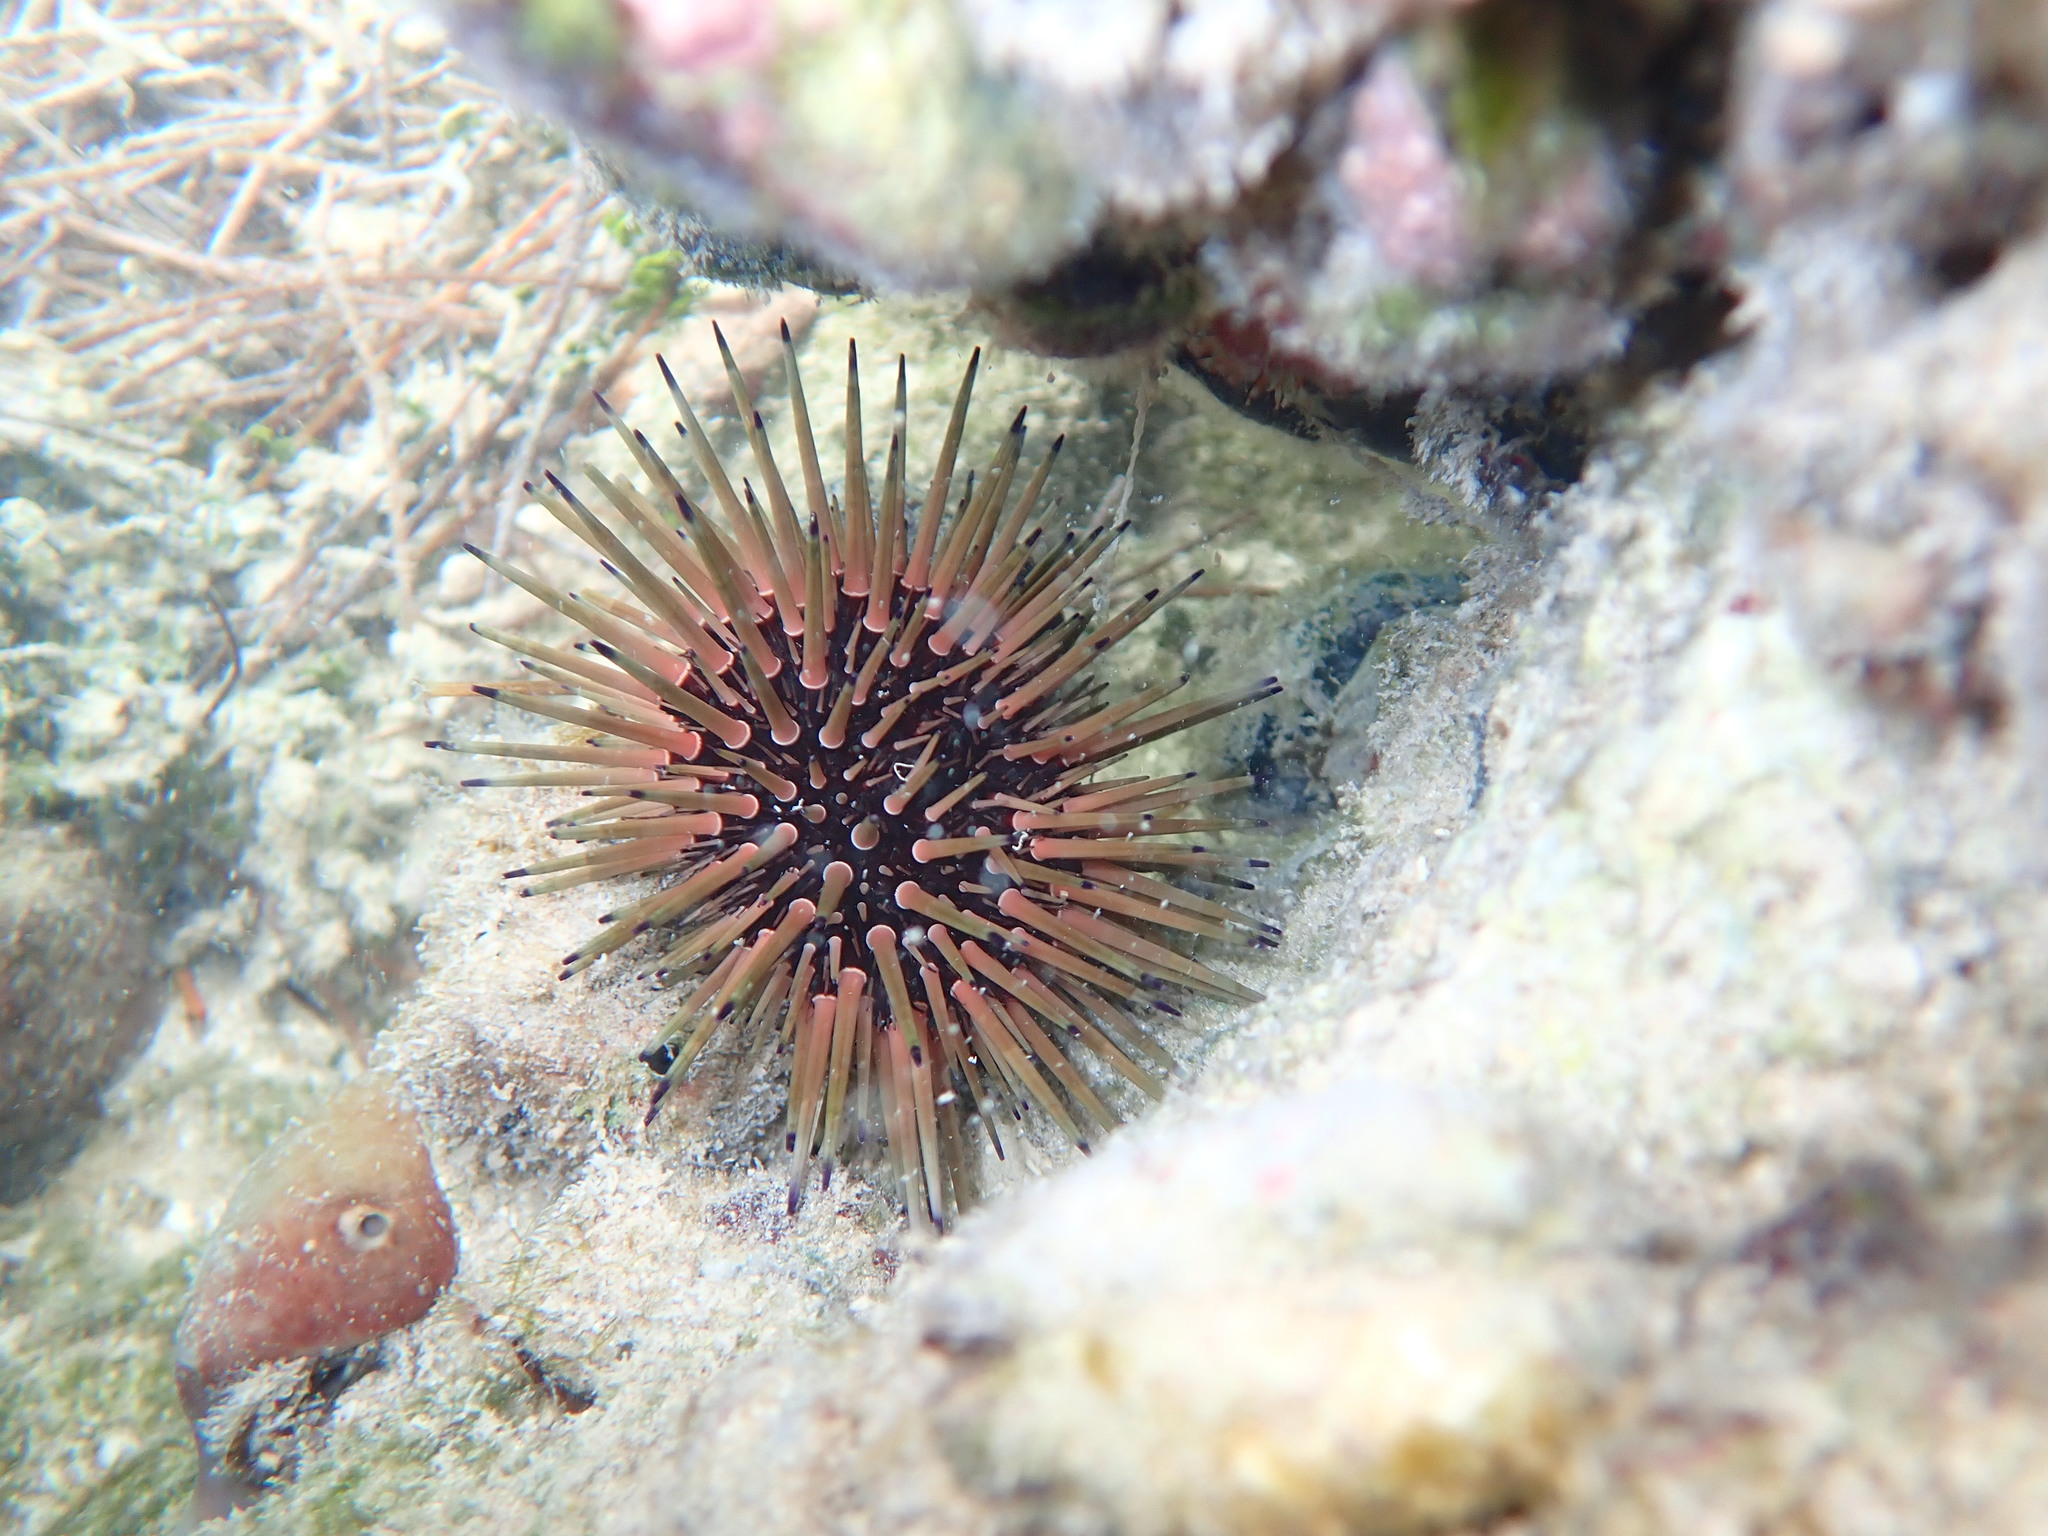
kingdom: Animalia
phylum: Echinodermata
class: Echinoidea
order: Camarodonta
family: Echinometridae
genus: Echinometra
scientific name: Echinometra viridis
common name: Reef urchin
